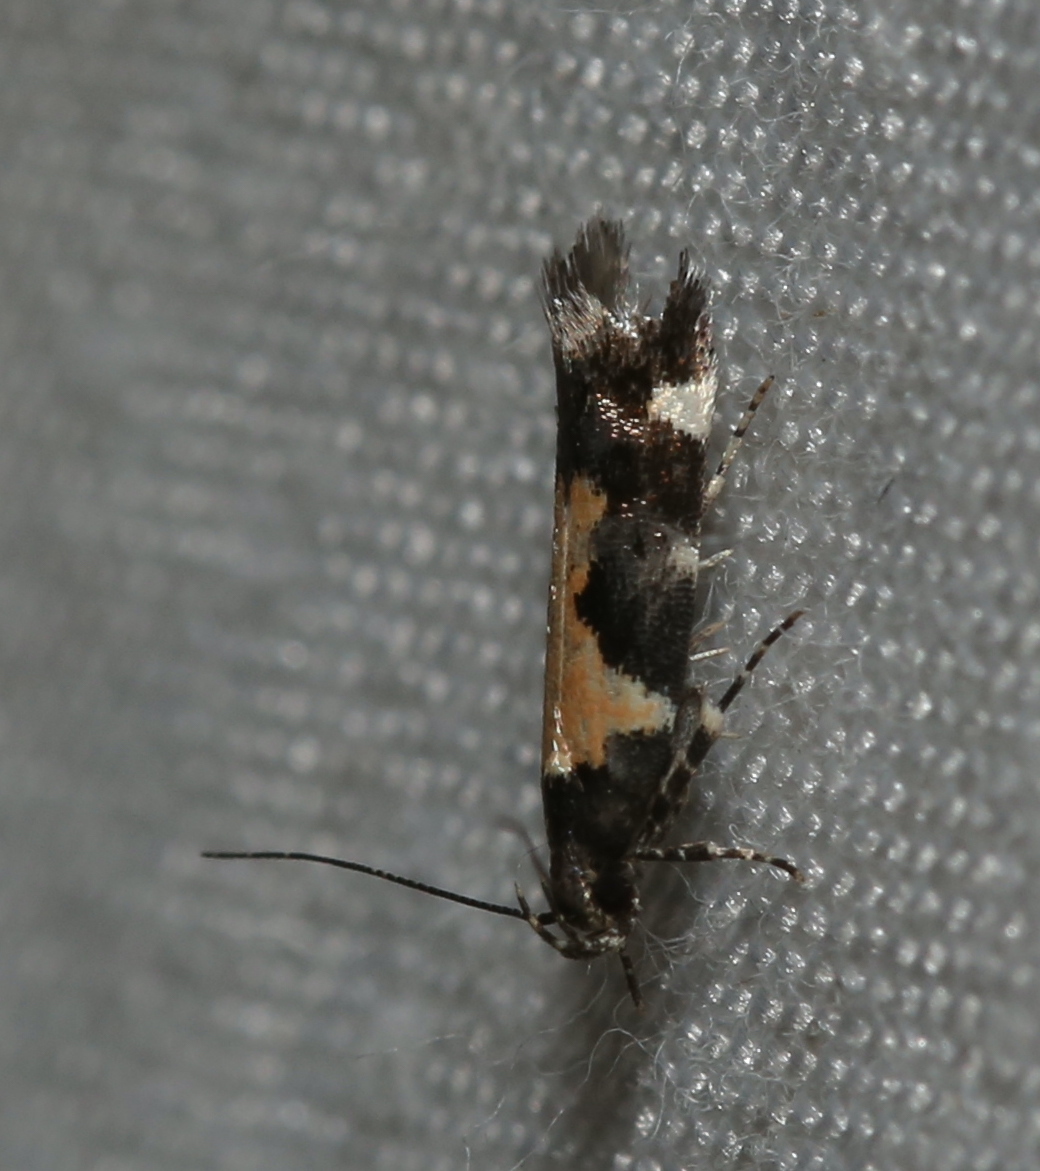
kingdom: Animalia
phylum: Arthropoda
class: Insecta
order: Lepidoptera
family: Gelechiidae
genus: Stegasta
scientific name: Stegasta bosqueella
